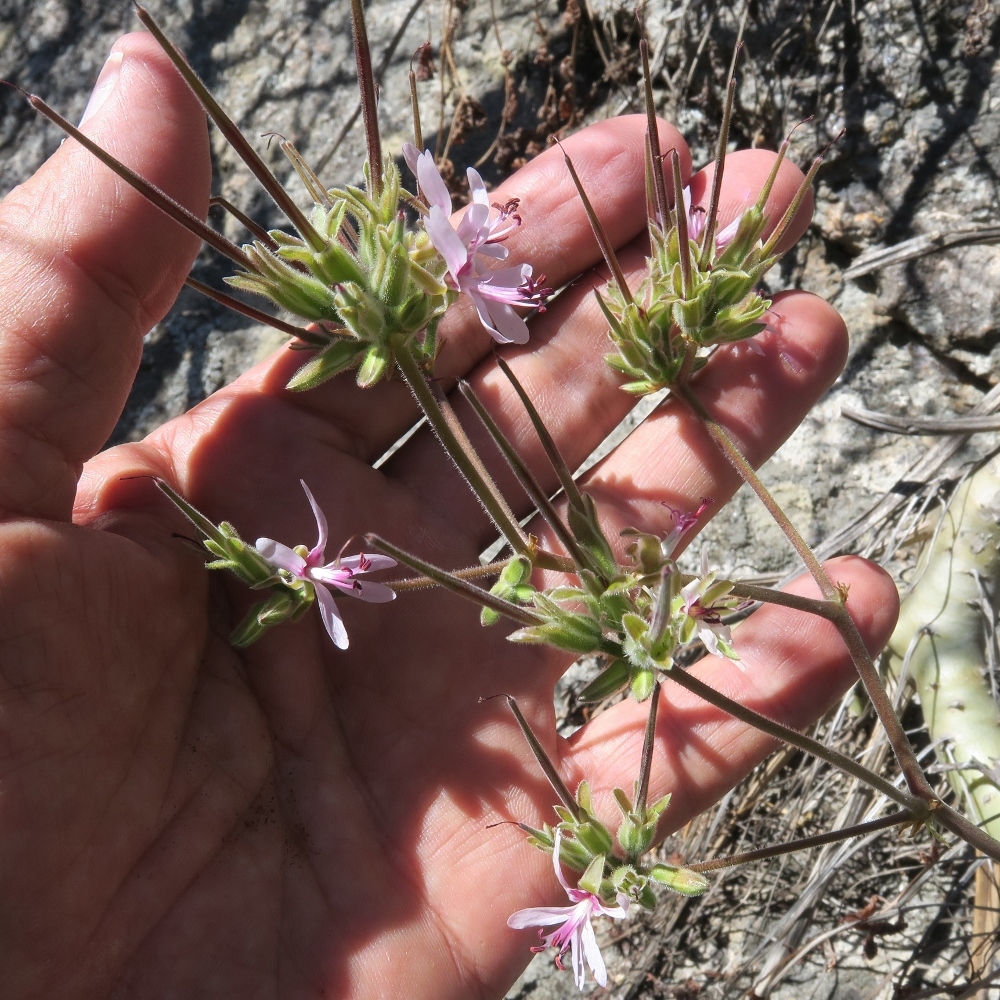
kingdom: Plantae
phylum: Tracheophyta
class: Magnoliopsida
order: Geraniales
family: Geraniaceae
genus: Pelargonium
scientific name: Pelargonium carnosum
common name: Fleshy-stalk pelargonium
